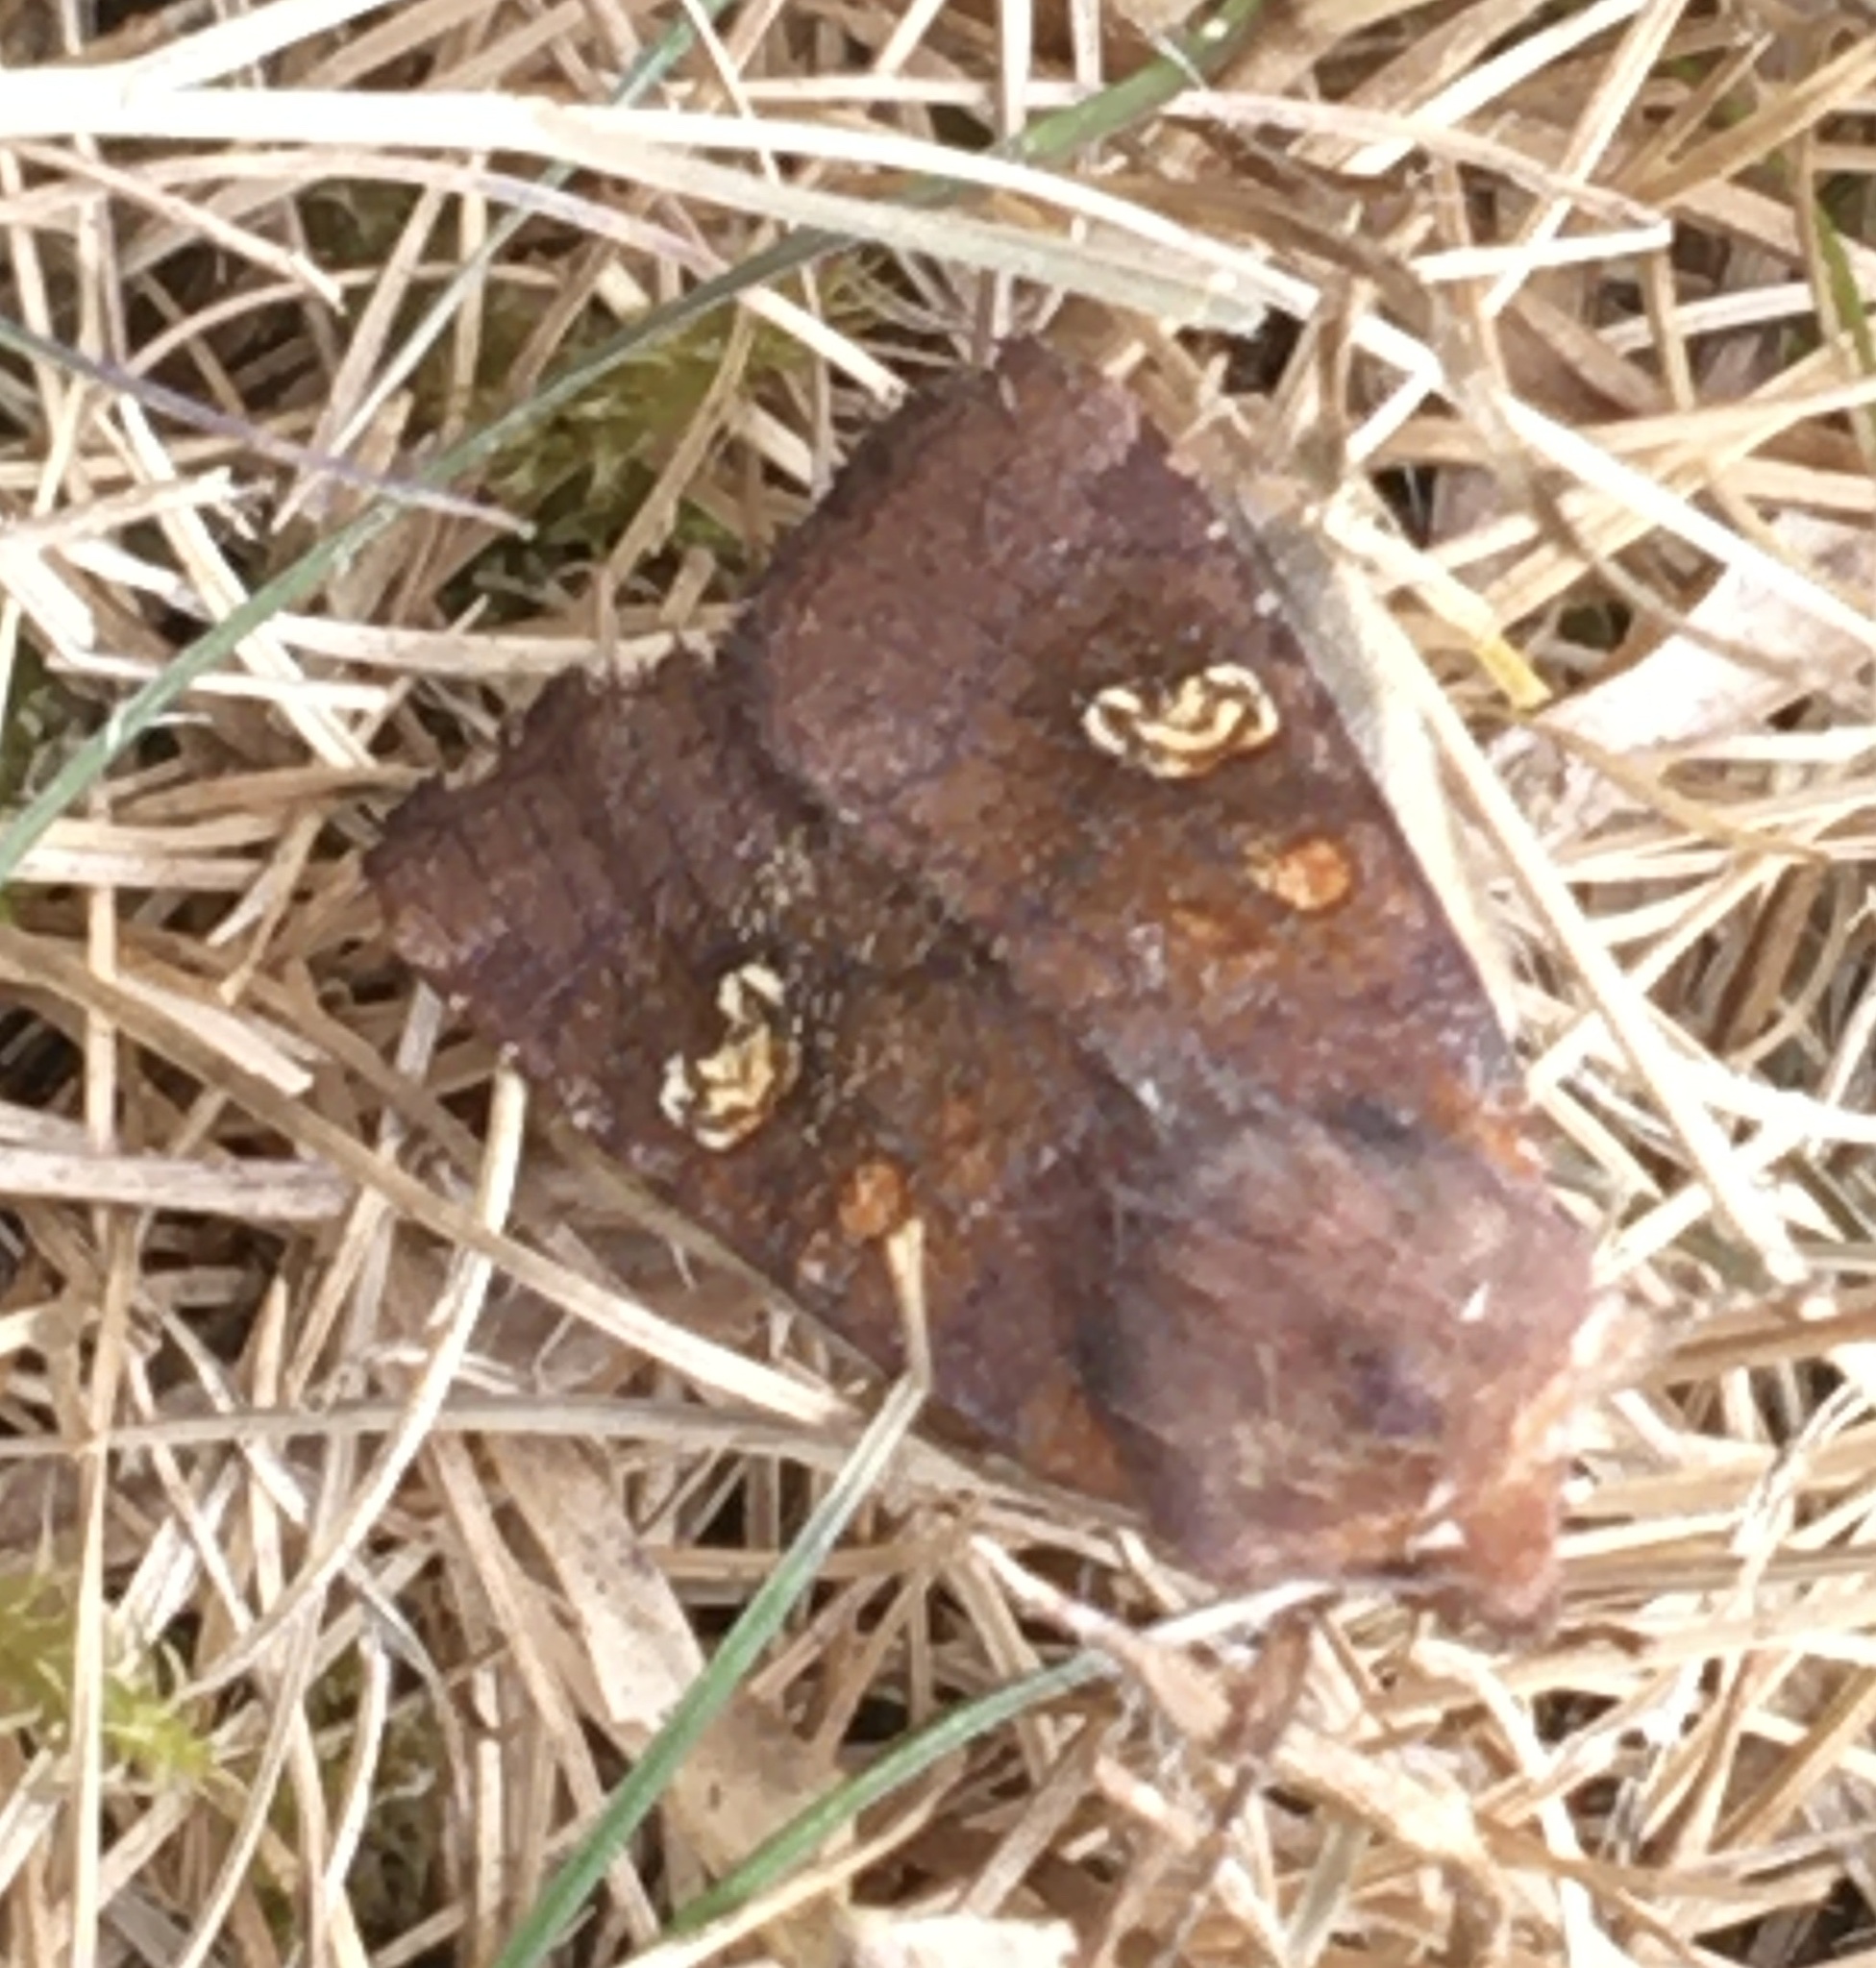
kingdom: Animalia
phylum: Arthropoda
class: Insecta
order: Lepidoptera
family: Noctuidae
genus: Amphipoea
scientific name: Amphipoea oculea
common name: Ear moth
